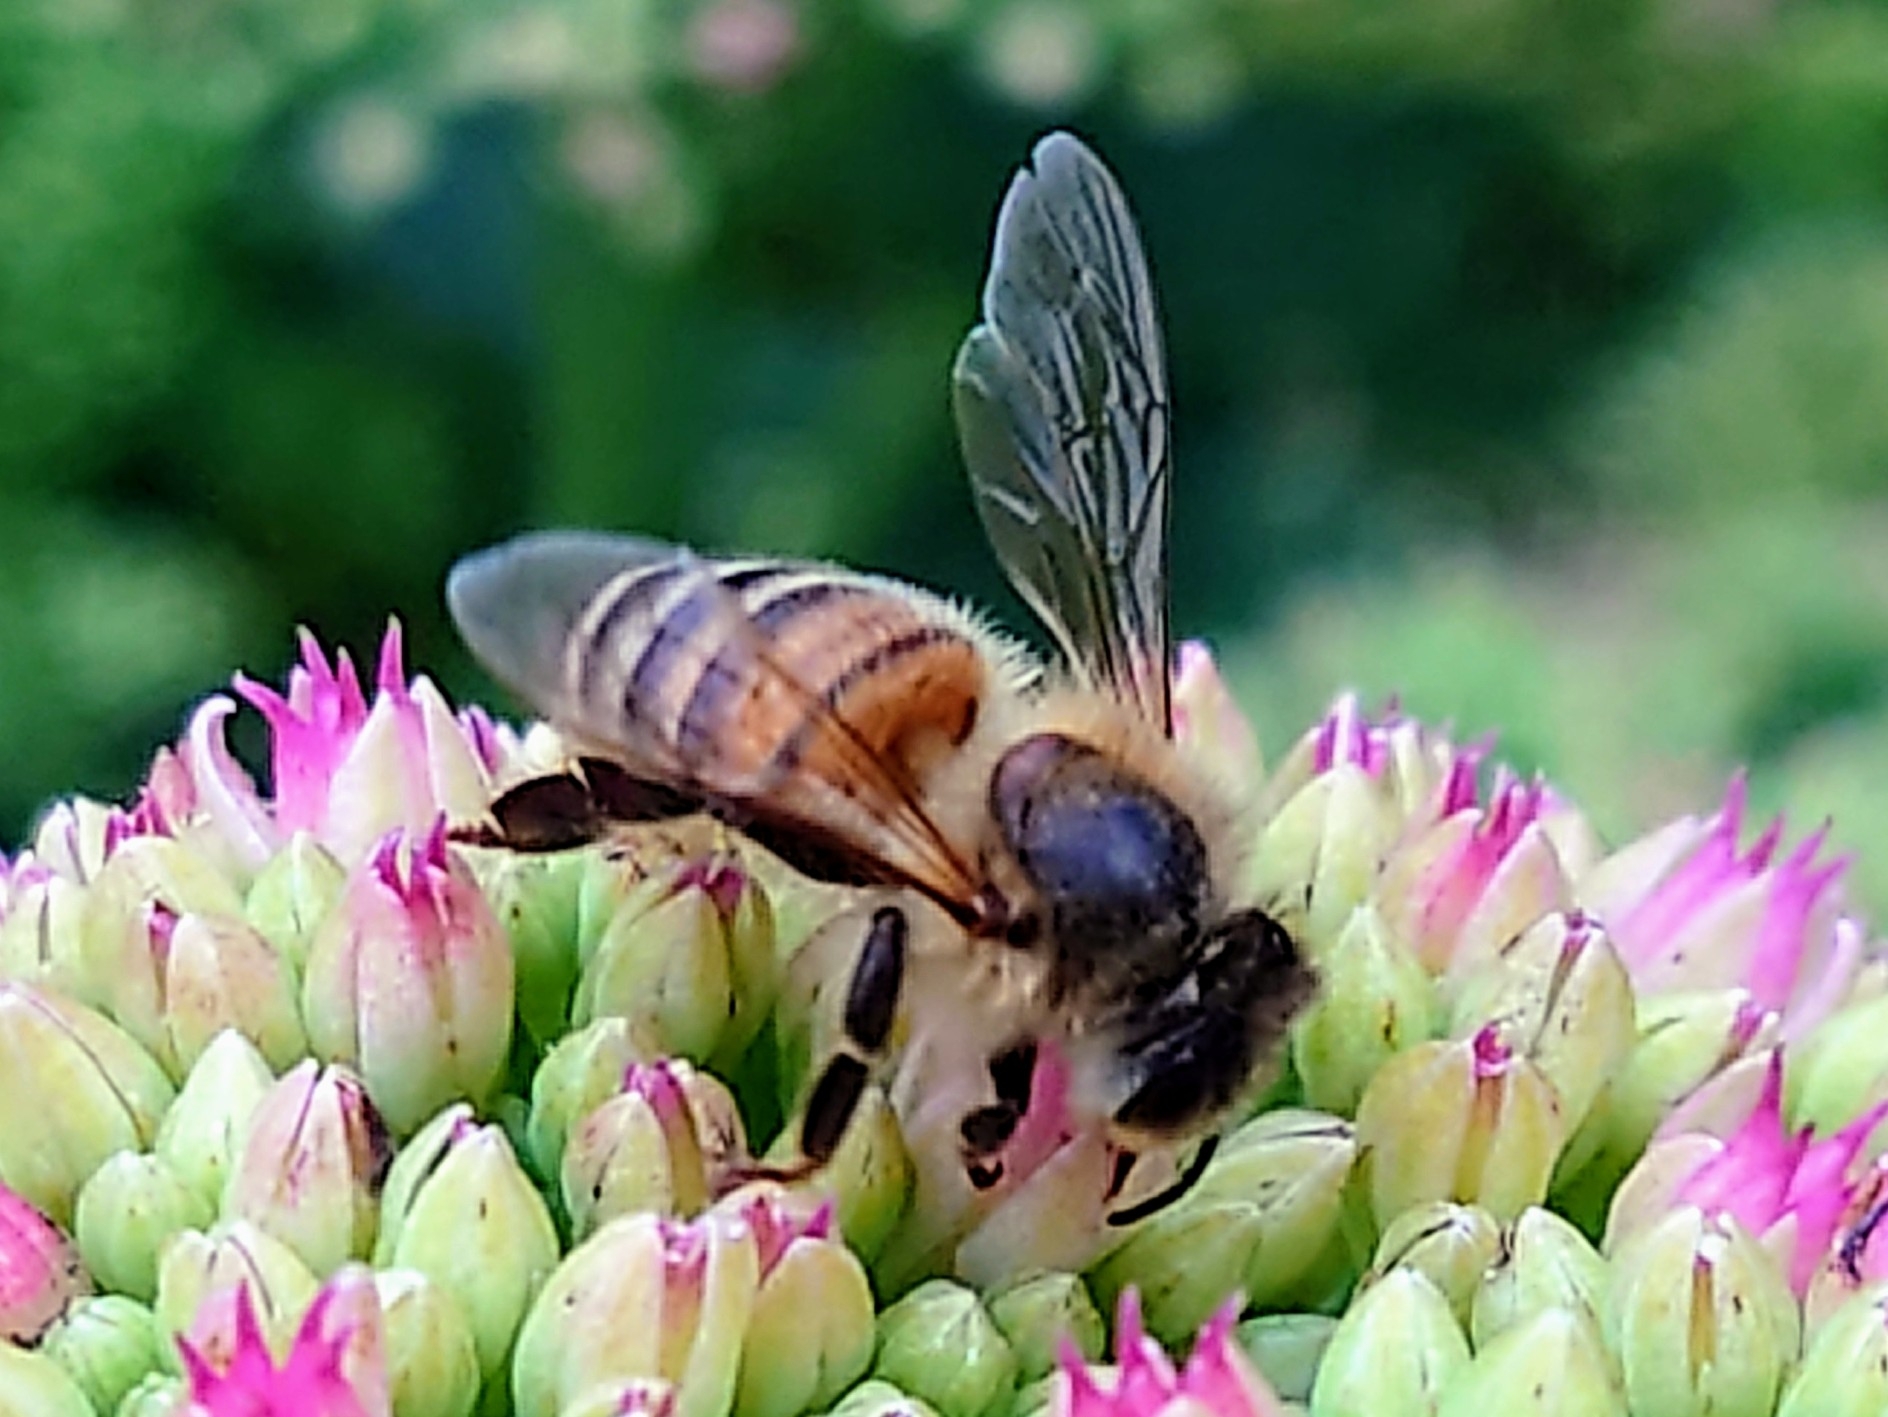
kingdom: Animalia
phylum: Arthropoda
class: Insecta
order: Hymenoptera
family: Apidae
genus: Apis
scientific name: Apis mellifera
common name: Honey bee
